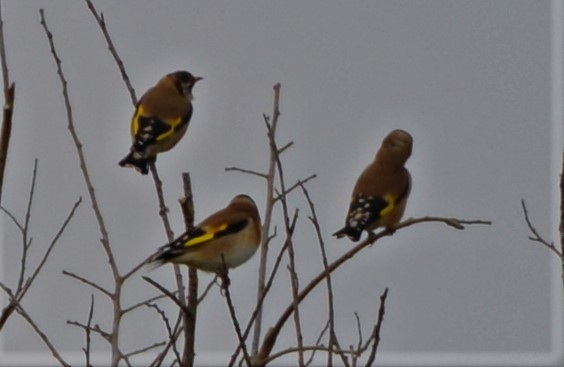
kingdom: Animalia
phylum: Chordata
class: Aves
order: Passeriformes
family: Fringillidae
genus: Carduelis
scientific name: Carduelis carduelis
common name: European goldfinch
